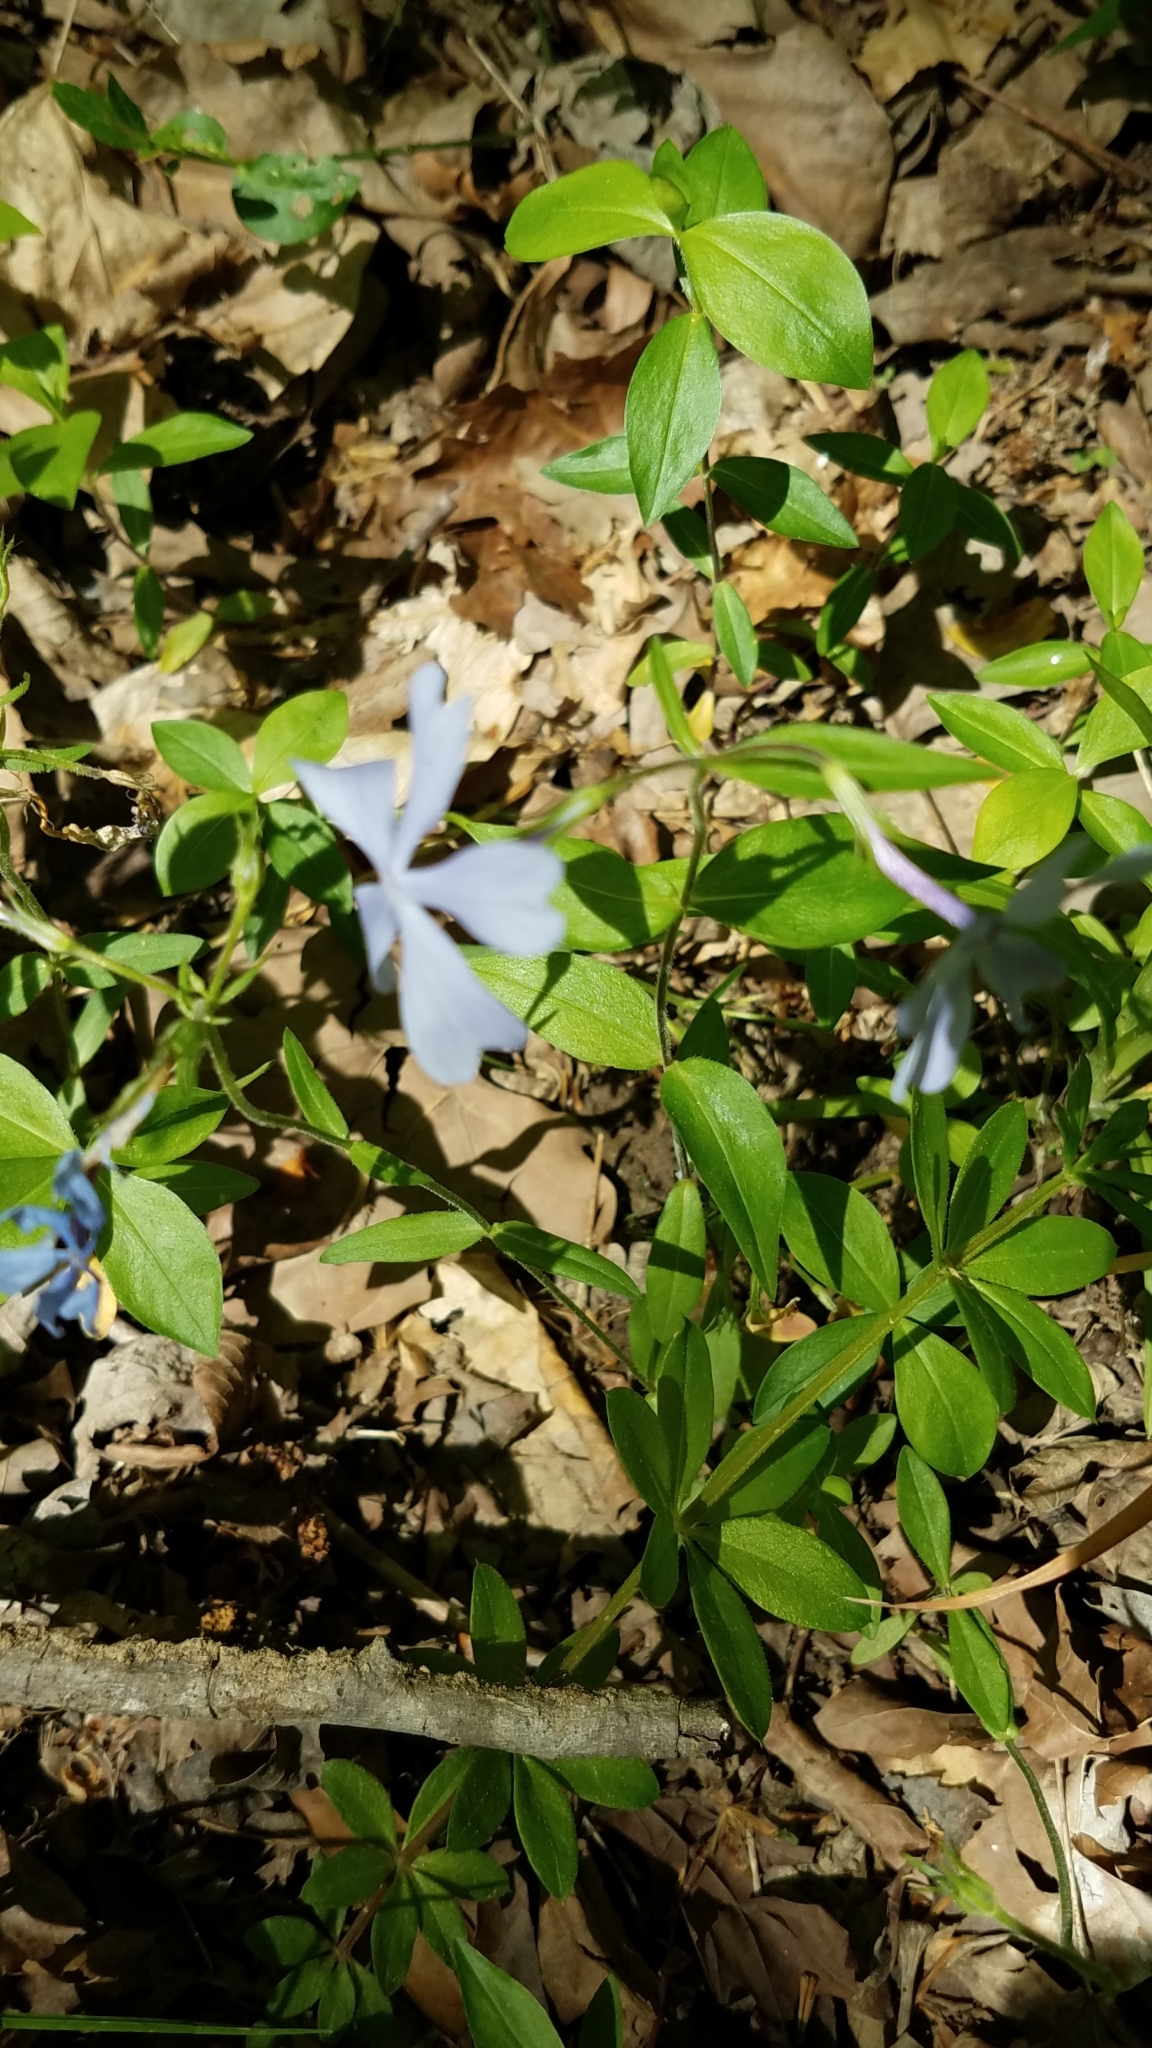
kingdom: Plantae
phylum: Tracheophyta
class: Magnoliopsida
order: Ericales
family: Polemoniaceae
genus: Phlox
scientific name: Phlox divaricata
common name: Blue phlox
